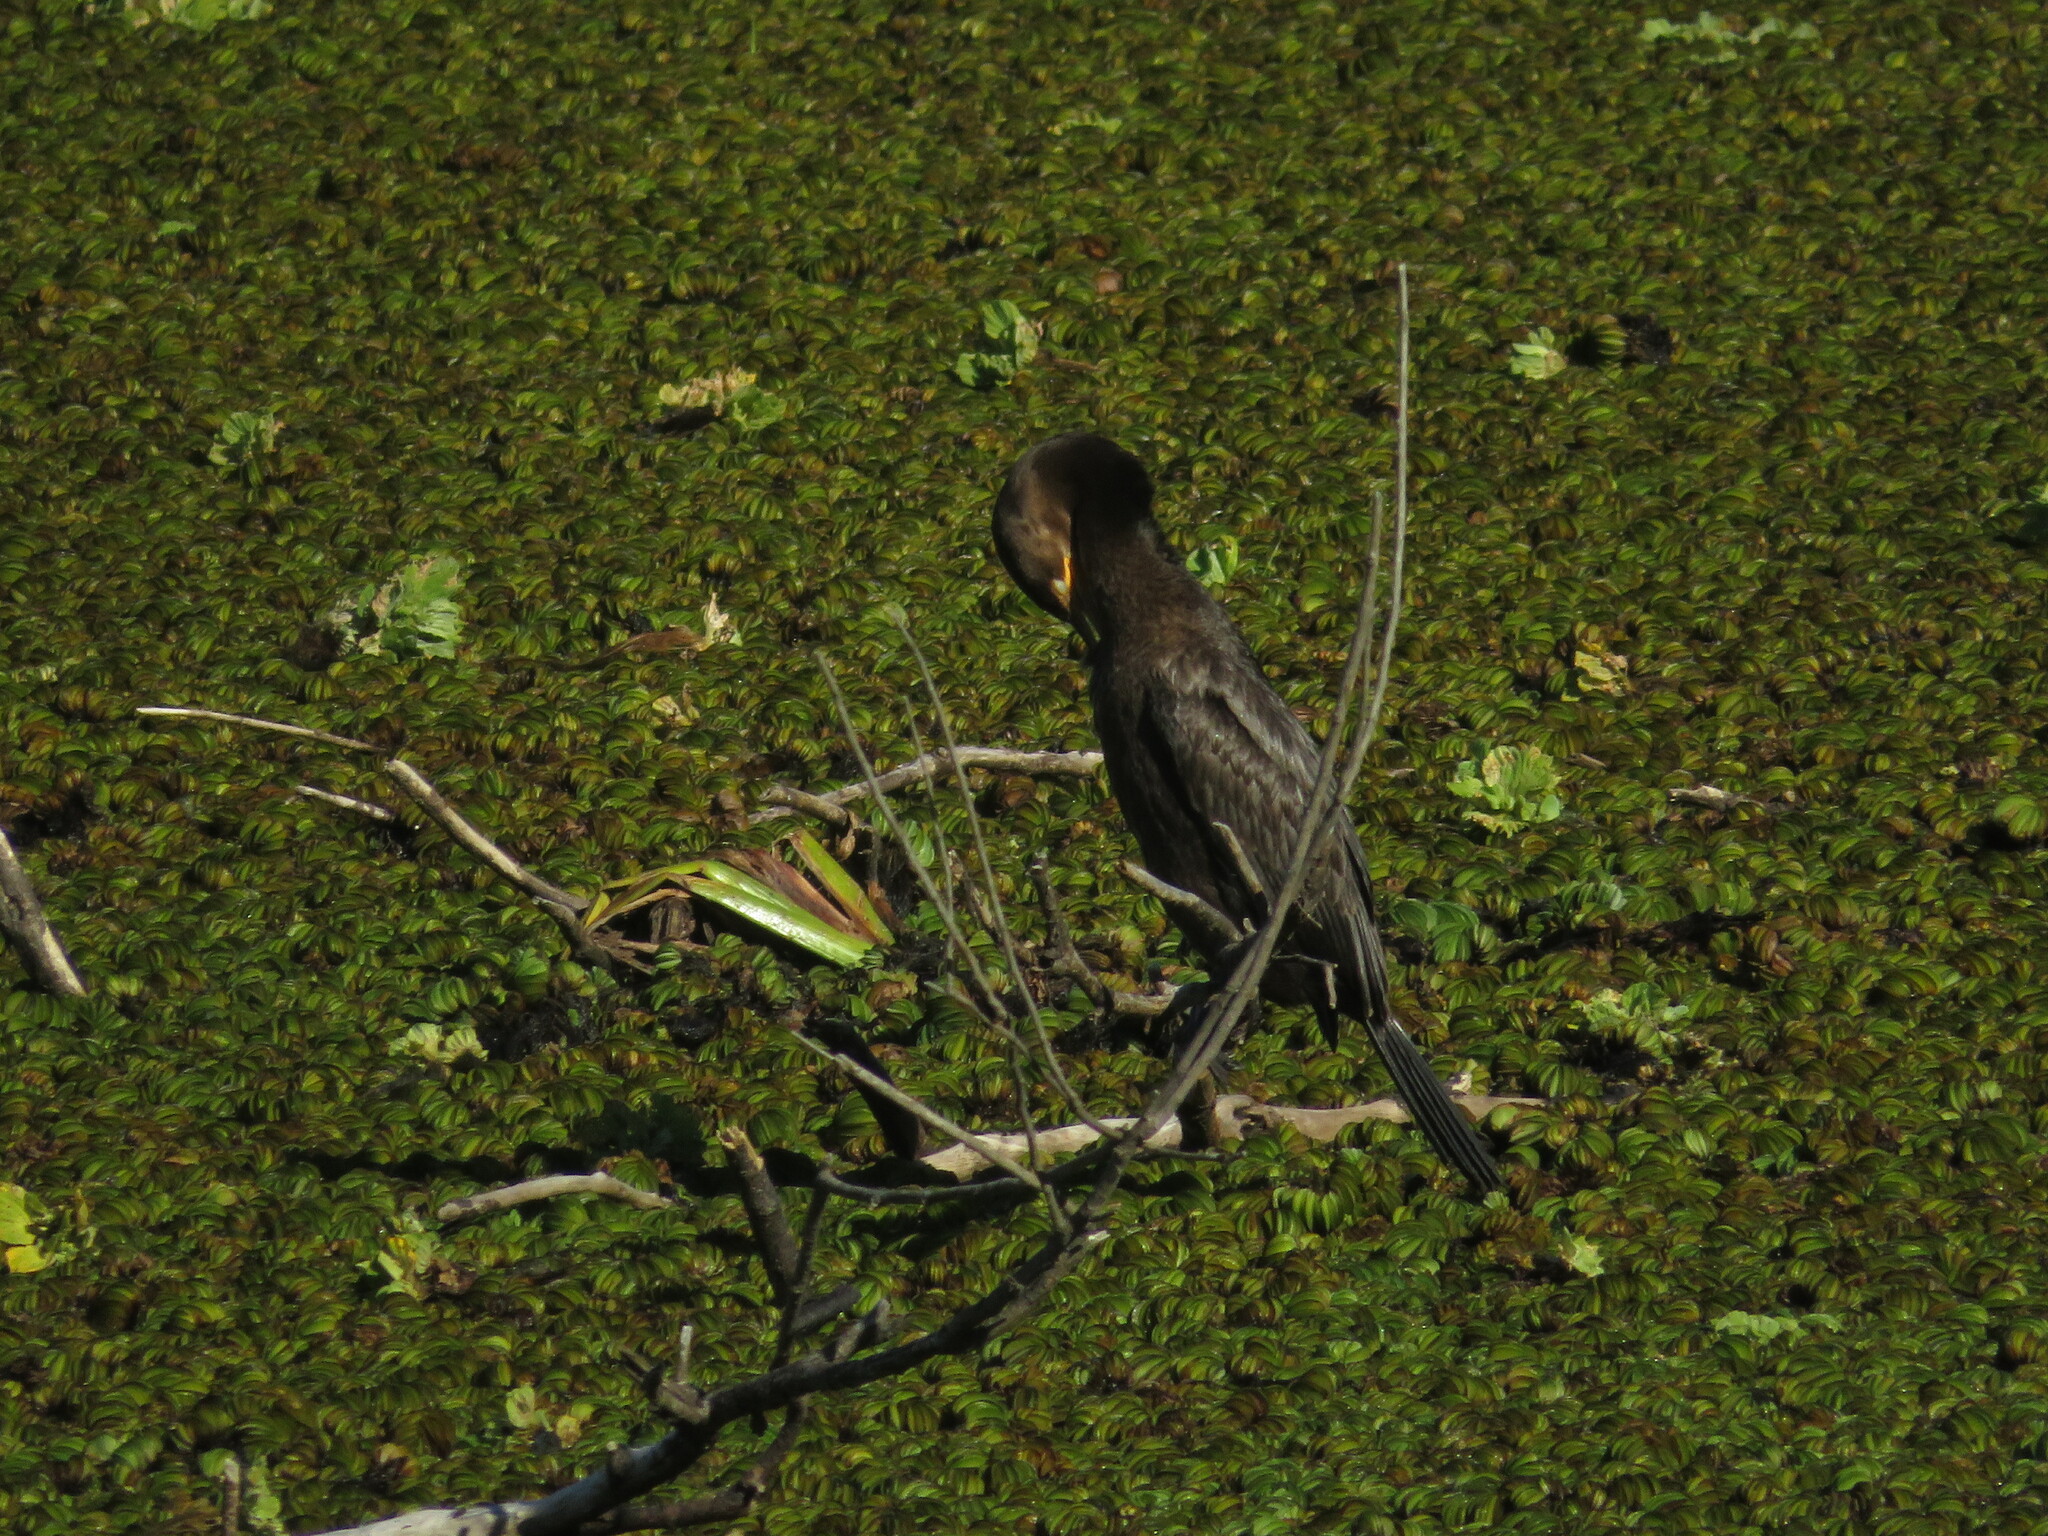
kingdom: Animalia
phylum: Chordata
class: Aves
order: Suliformes
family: Phalacrocoracidae
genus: Phalacrocorax
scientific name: Phalacrocorax brasilianus
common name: Neotropic cormorant
